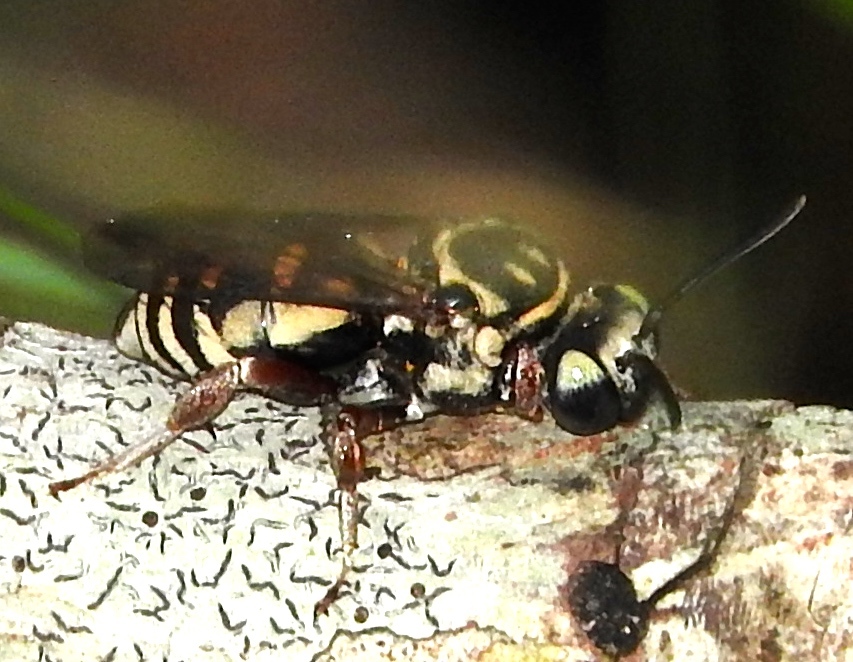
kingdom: Animalia
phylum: Arthropoda
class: Insecta
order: Hymenoptera
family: Apidae
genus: Triepeolus
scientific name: Triepeolus
